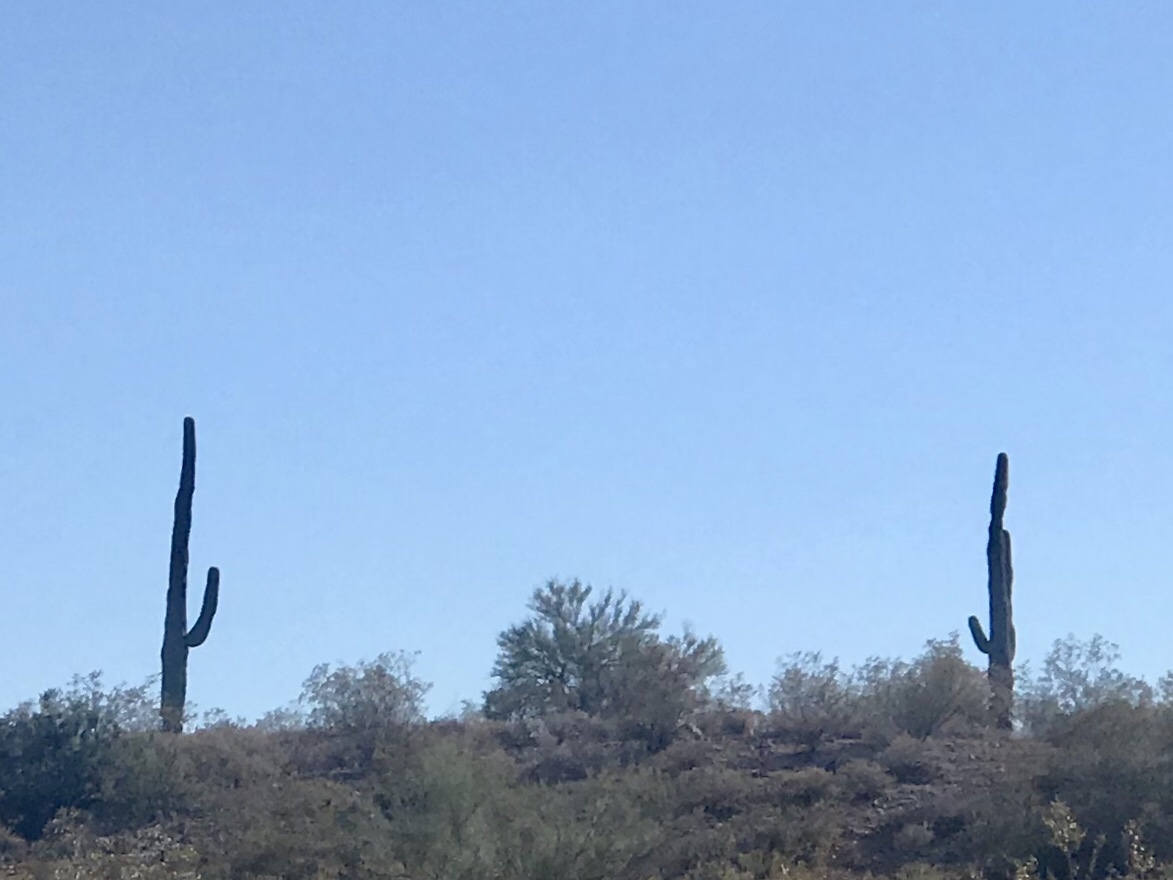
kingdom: Plantae
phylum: Tracheophyta
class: Magnoliopsida
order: Caryophyllales
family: Cactaceae
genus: Carnegiea
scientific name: Carnegiea gigantea
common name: Saguaro
